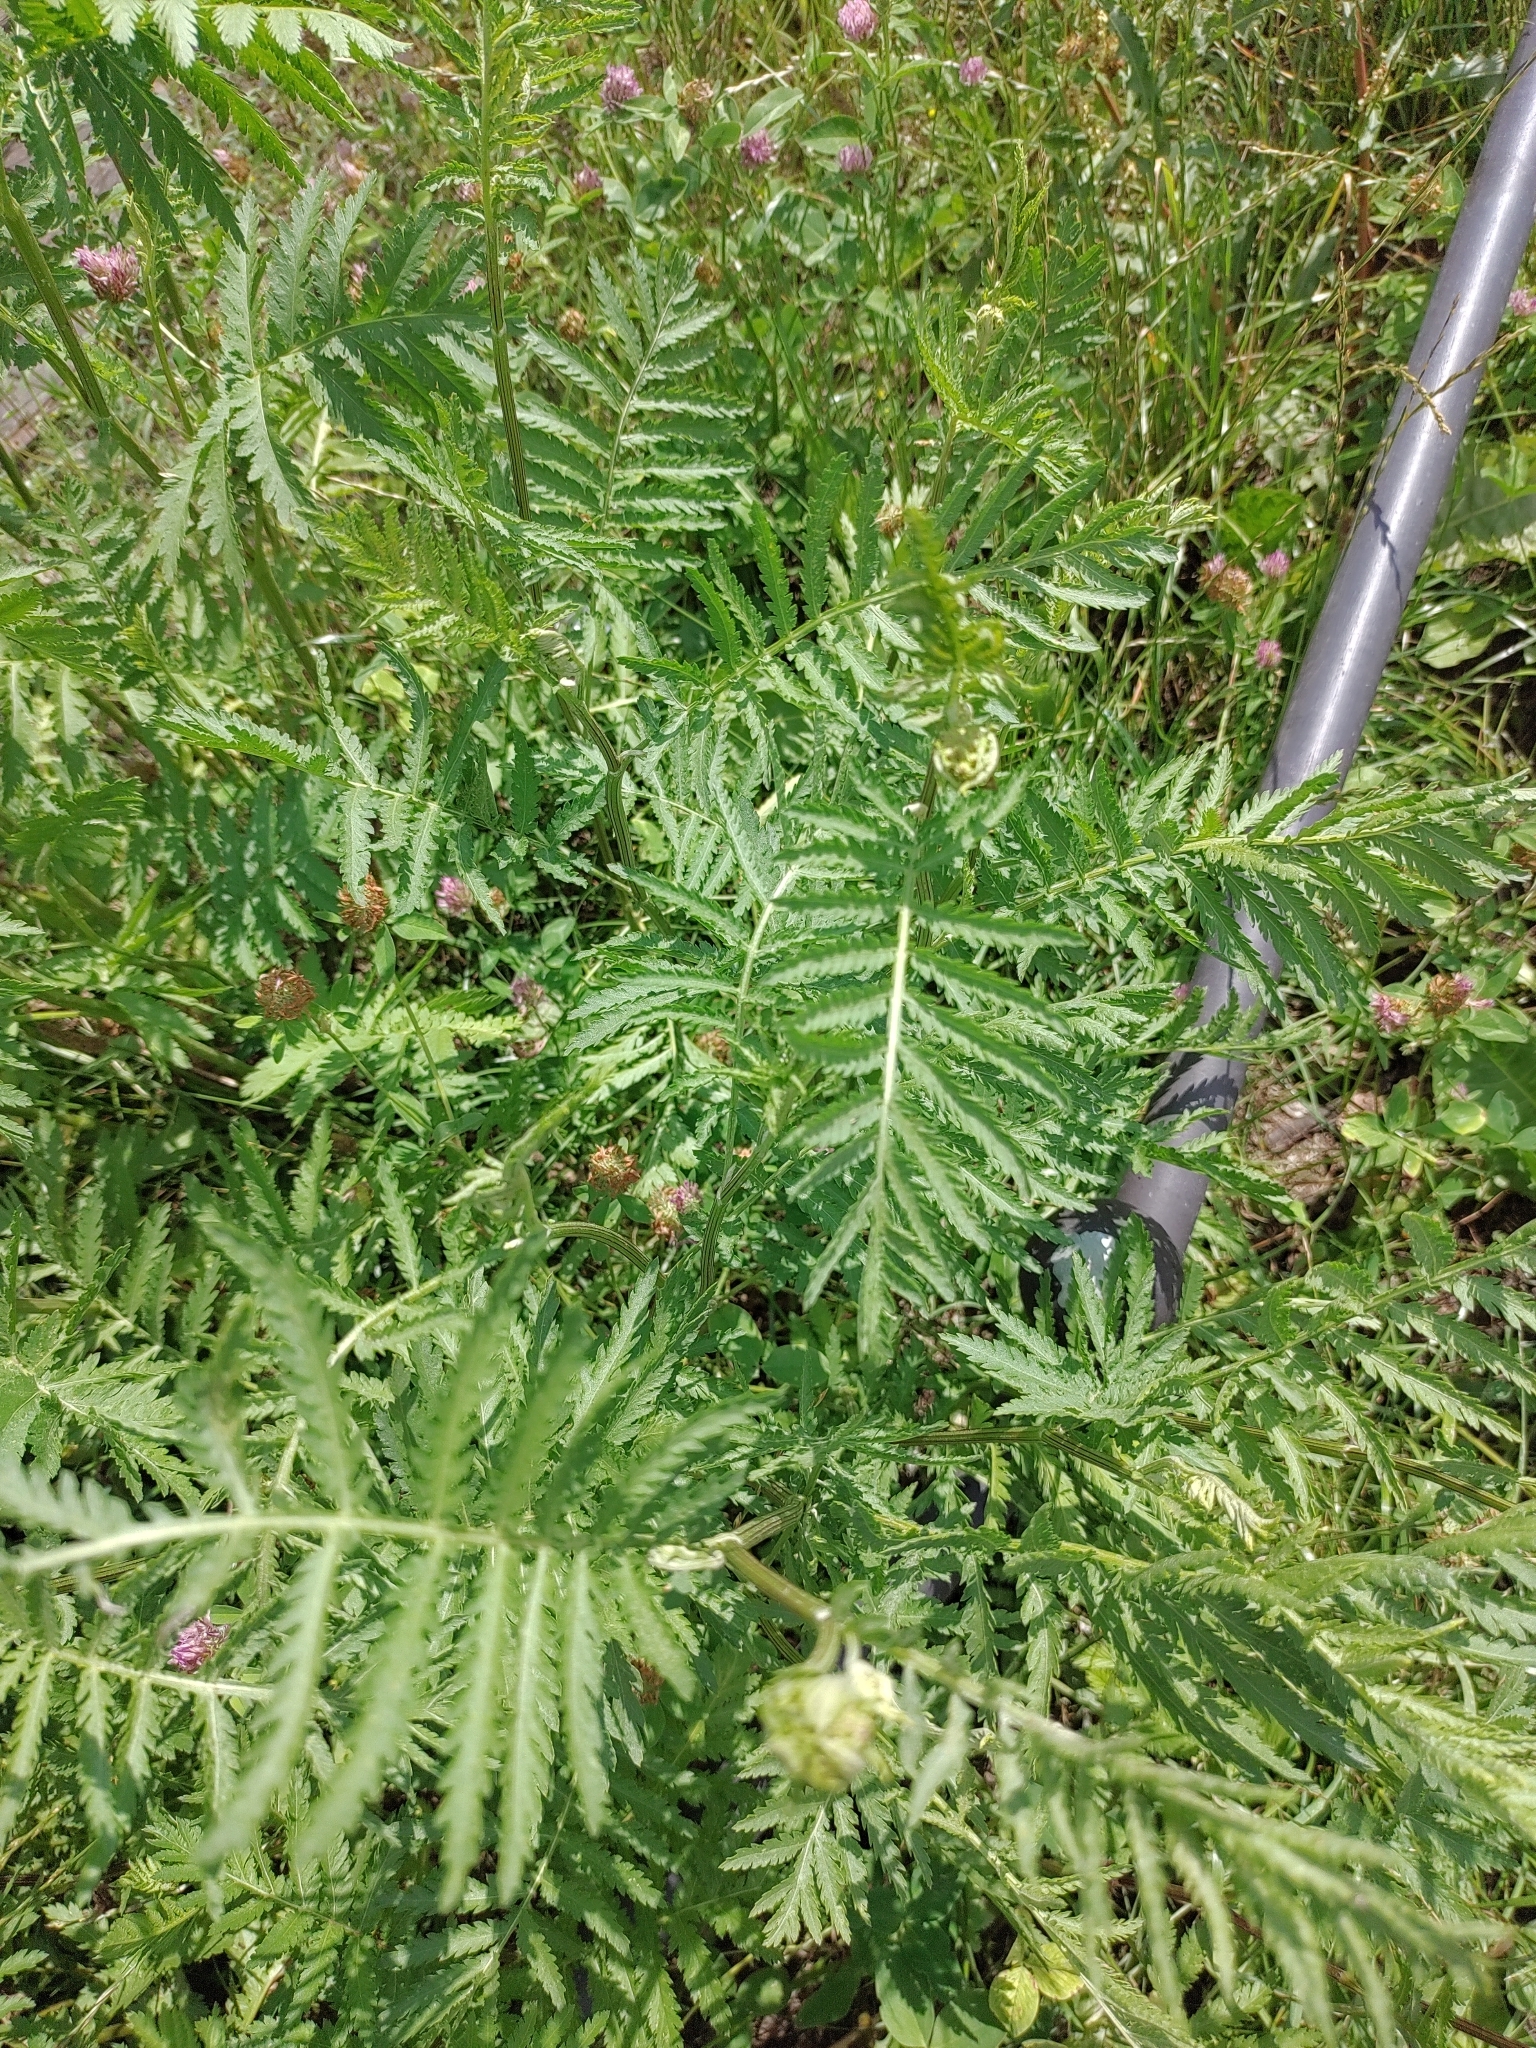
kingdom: Plantae
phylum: Tracheophyta
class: Magnoliopsida
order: Asterales
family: Asteraceae
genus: Tanacetum
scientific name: Tanacetum vulgare
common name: Common tansy
